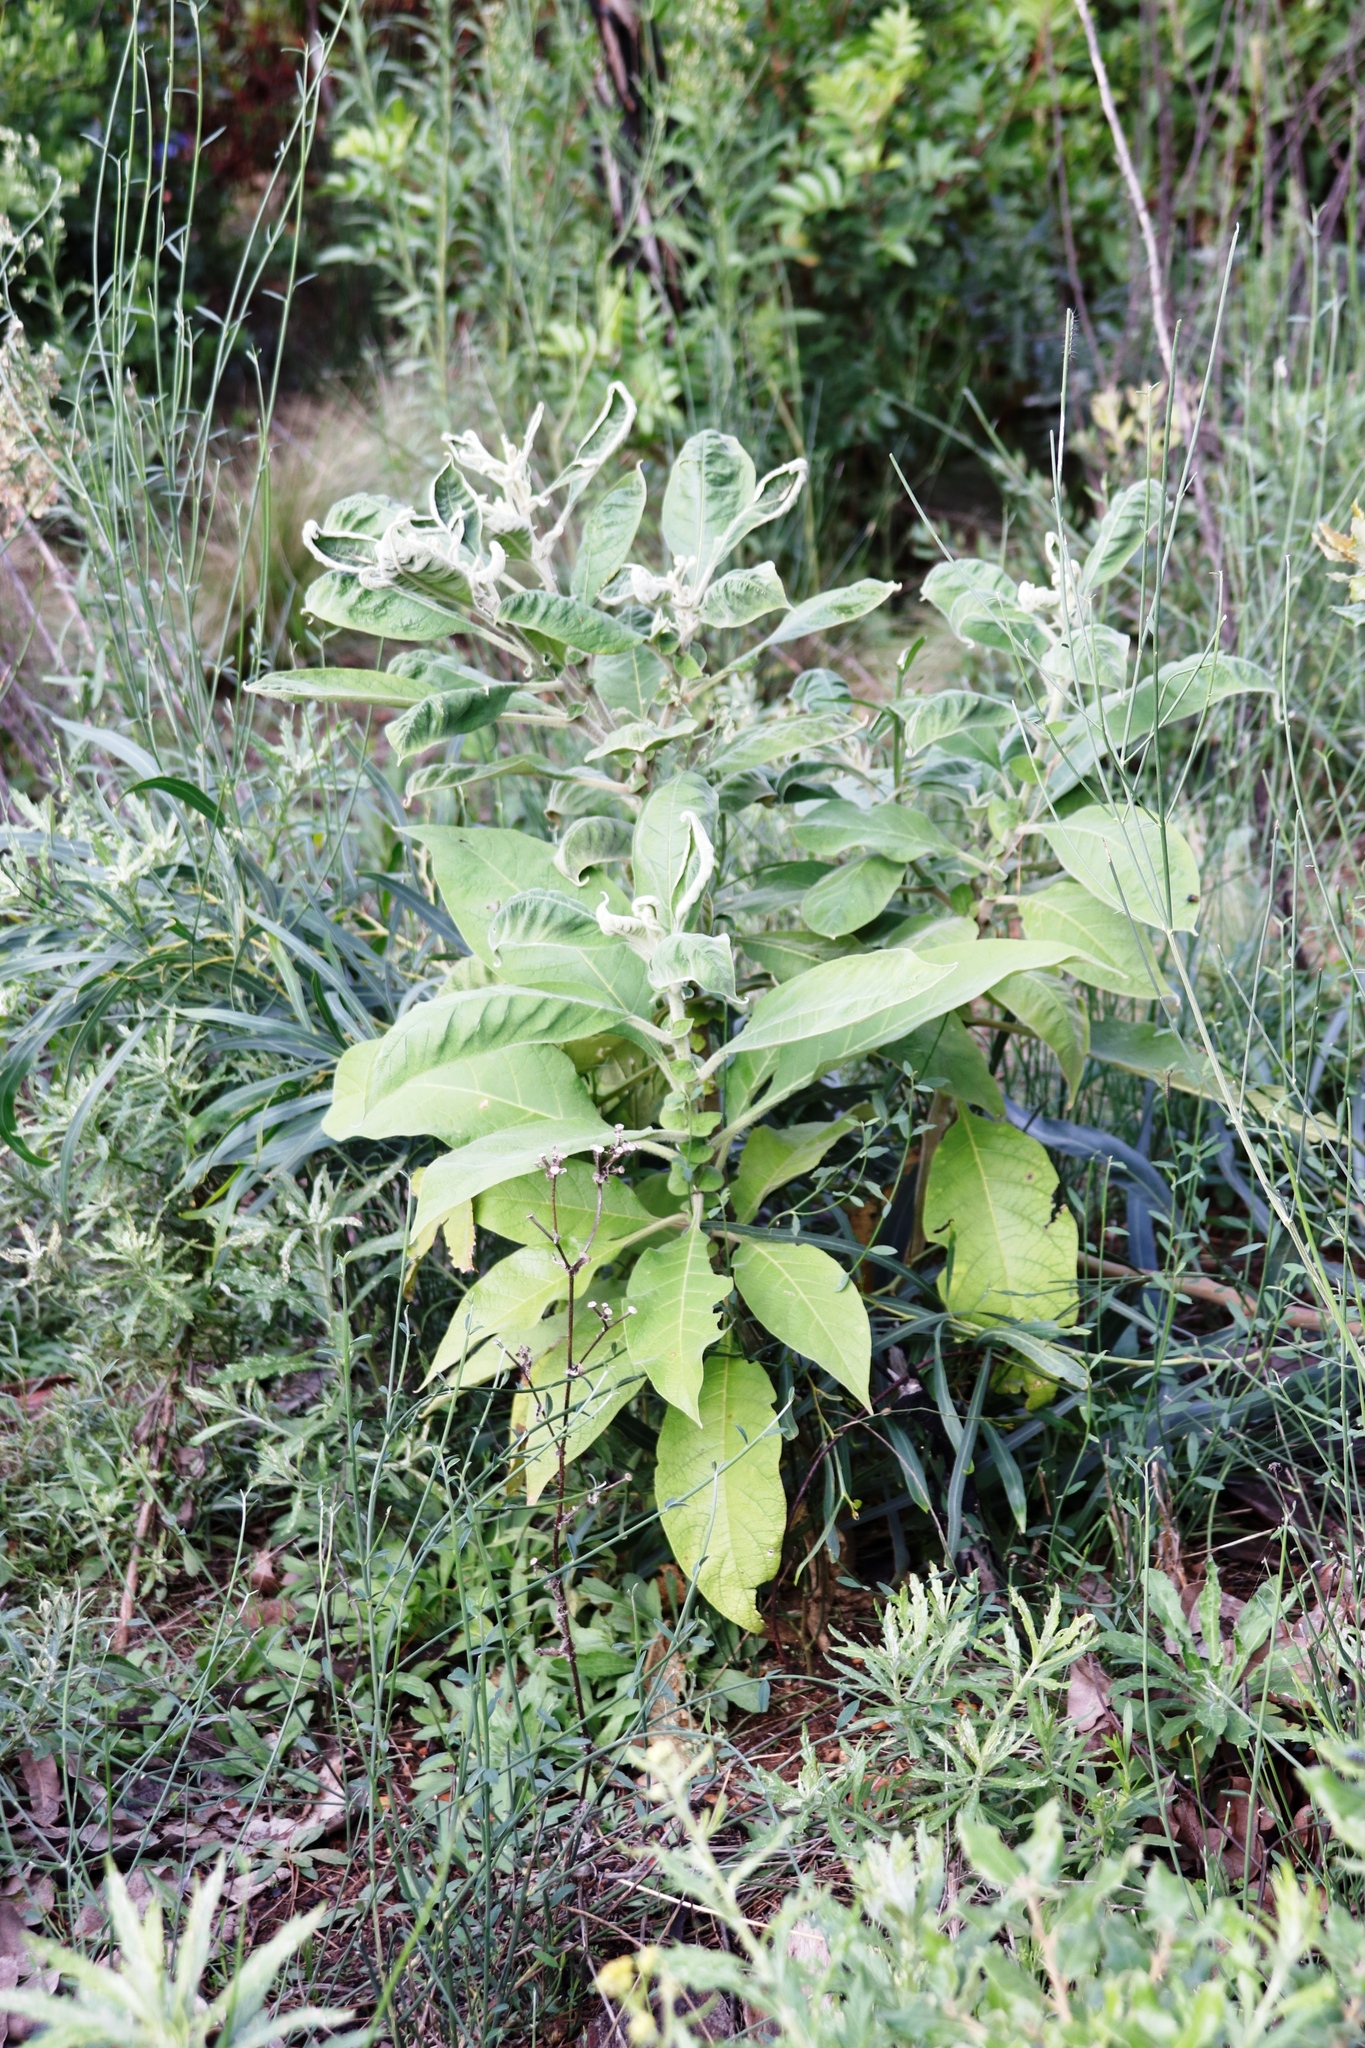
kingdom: Plantae
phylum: Tracheophyta
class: Magnoliopsida
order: Solanales
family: Solanaceae
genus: Solanum
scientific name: Solanum mauritianum
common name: Earleaf nightshade
